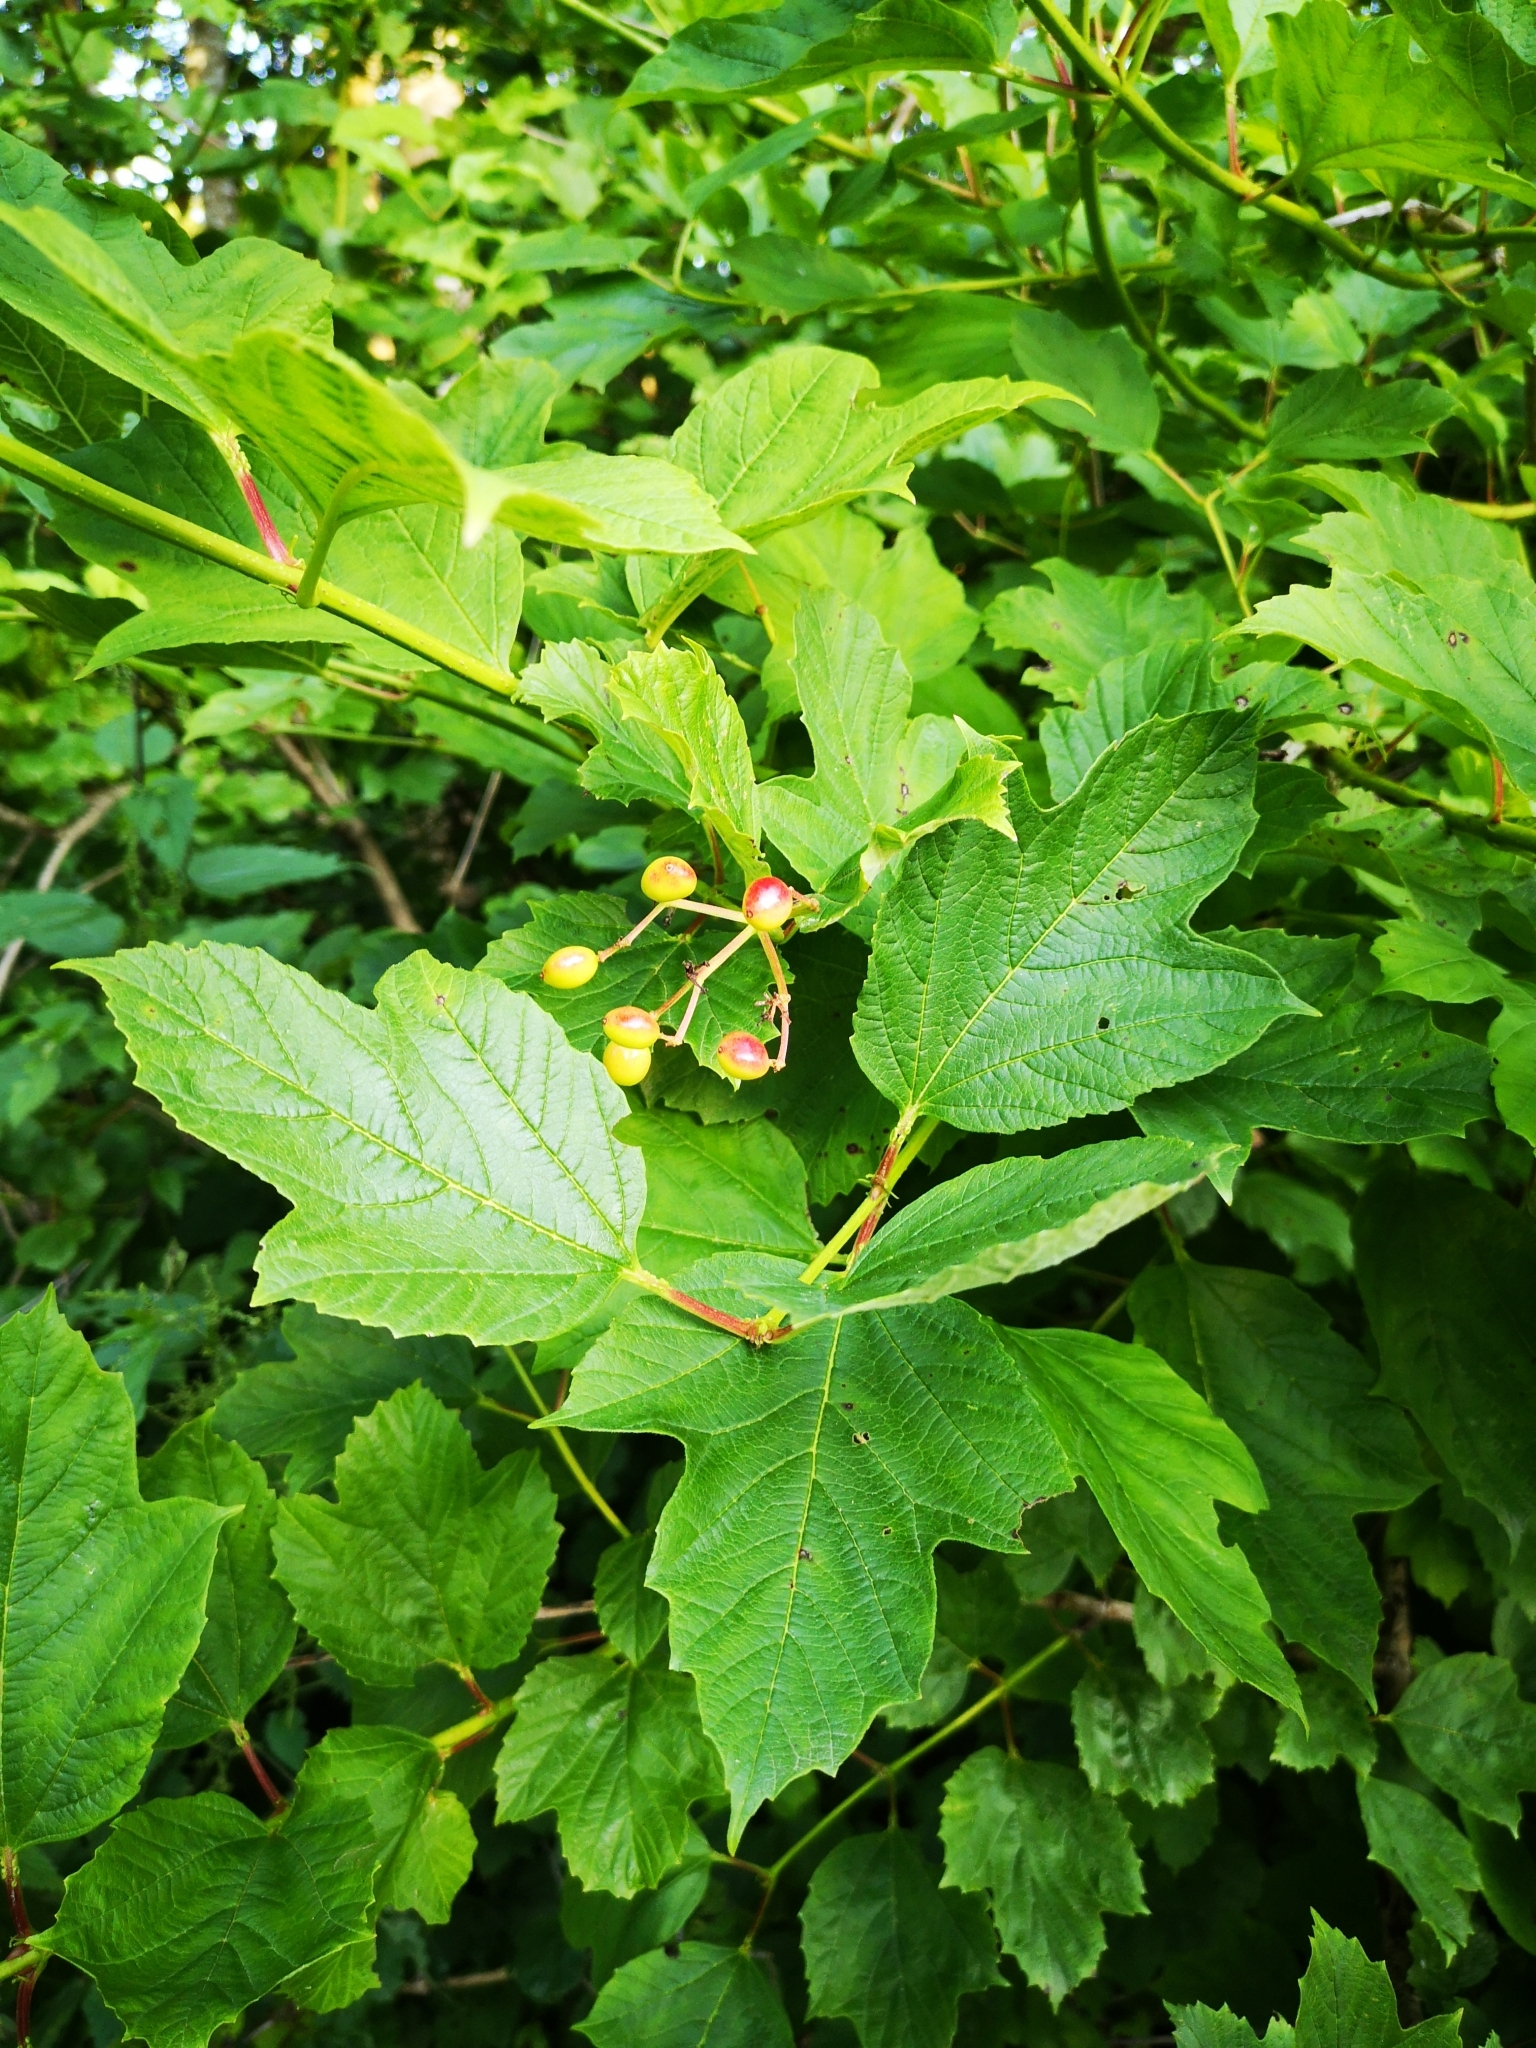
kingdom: Plantae
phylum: Tracheophyta
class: Magnoliopsida
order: Dipsacales
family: Viburnaceae
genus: Viburnum
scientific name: Viburnum opulus
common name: Guelder-rose
